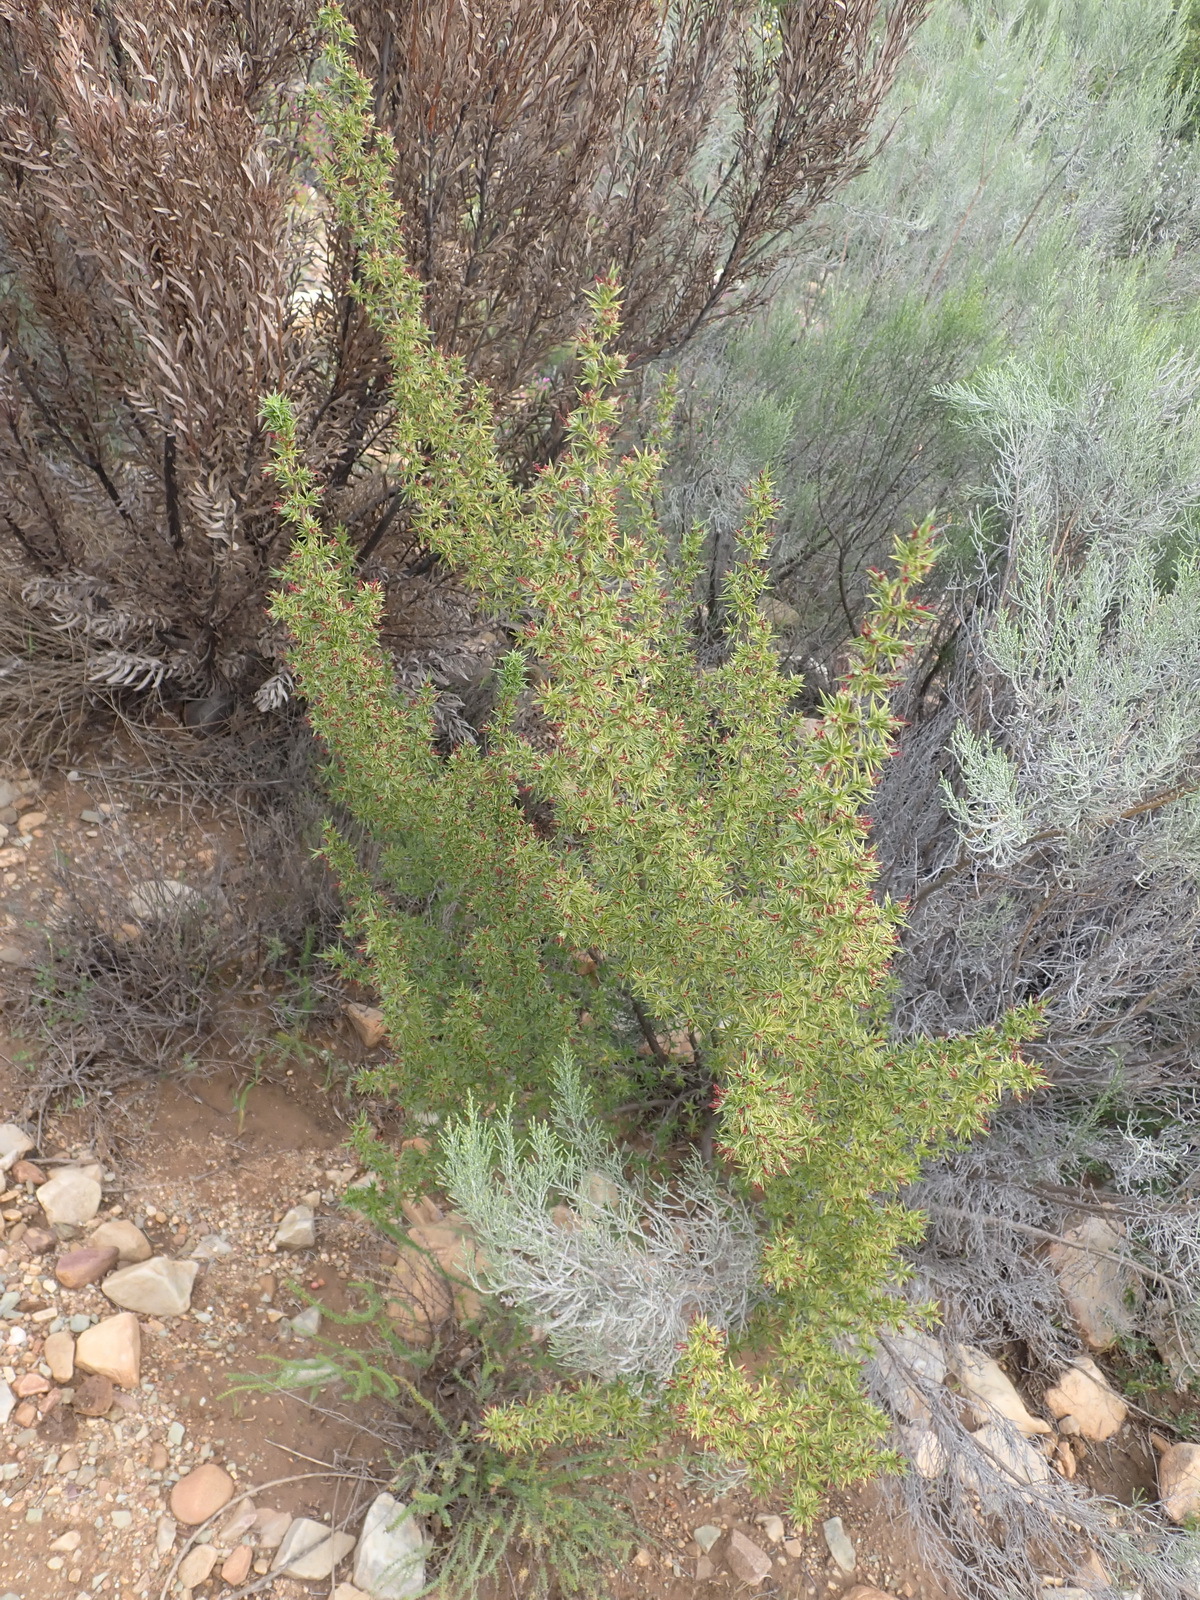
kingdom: Plantae
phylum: Tracheophyta
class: Magnoliopsida
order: Rosales
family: Rosaceae
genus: Cliffortia
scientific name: Cliffortia ruscifolia
